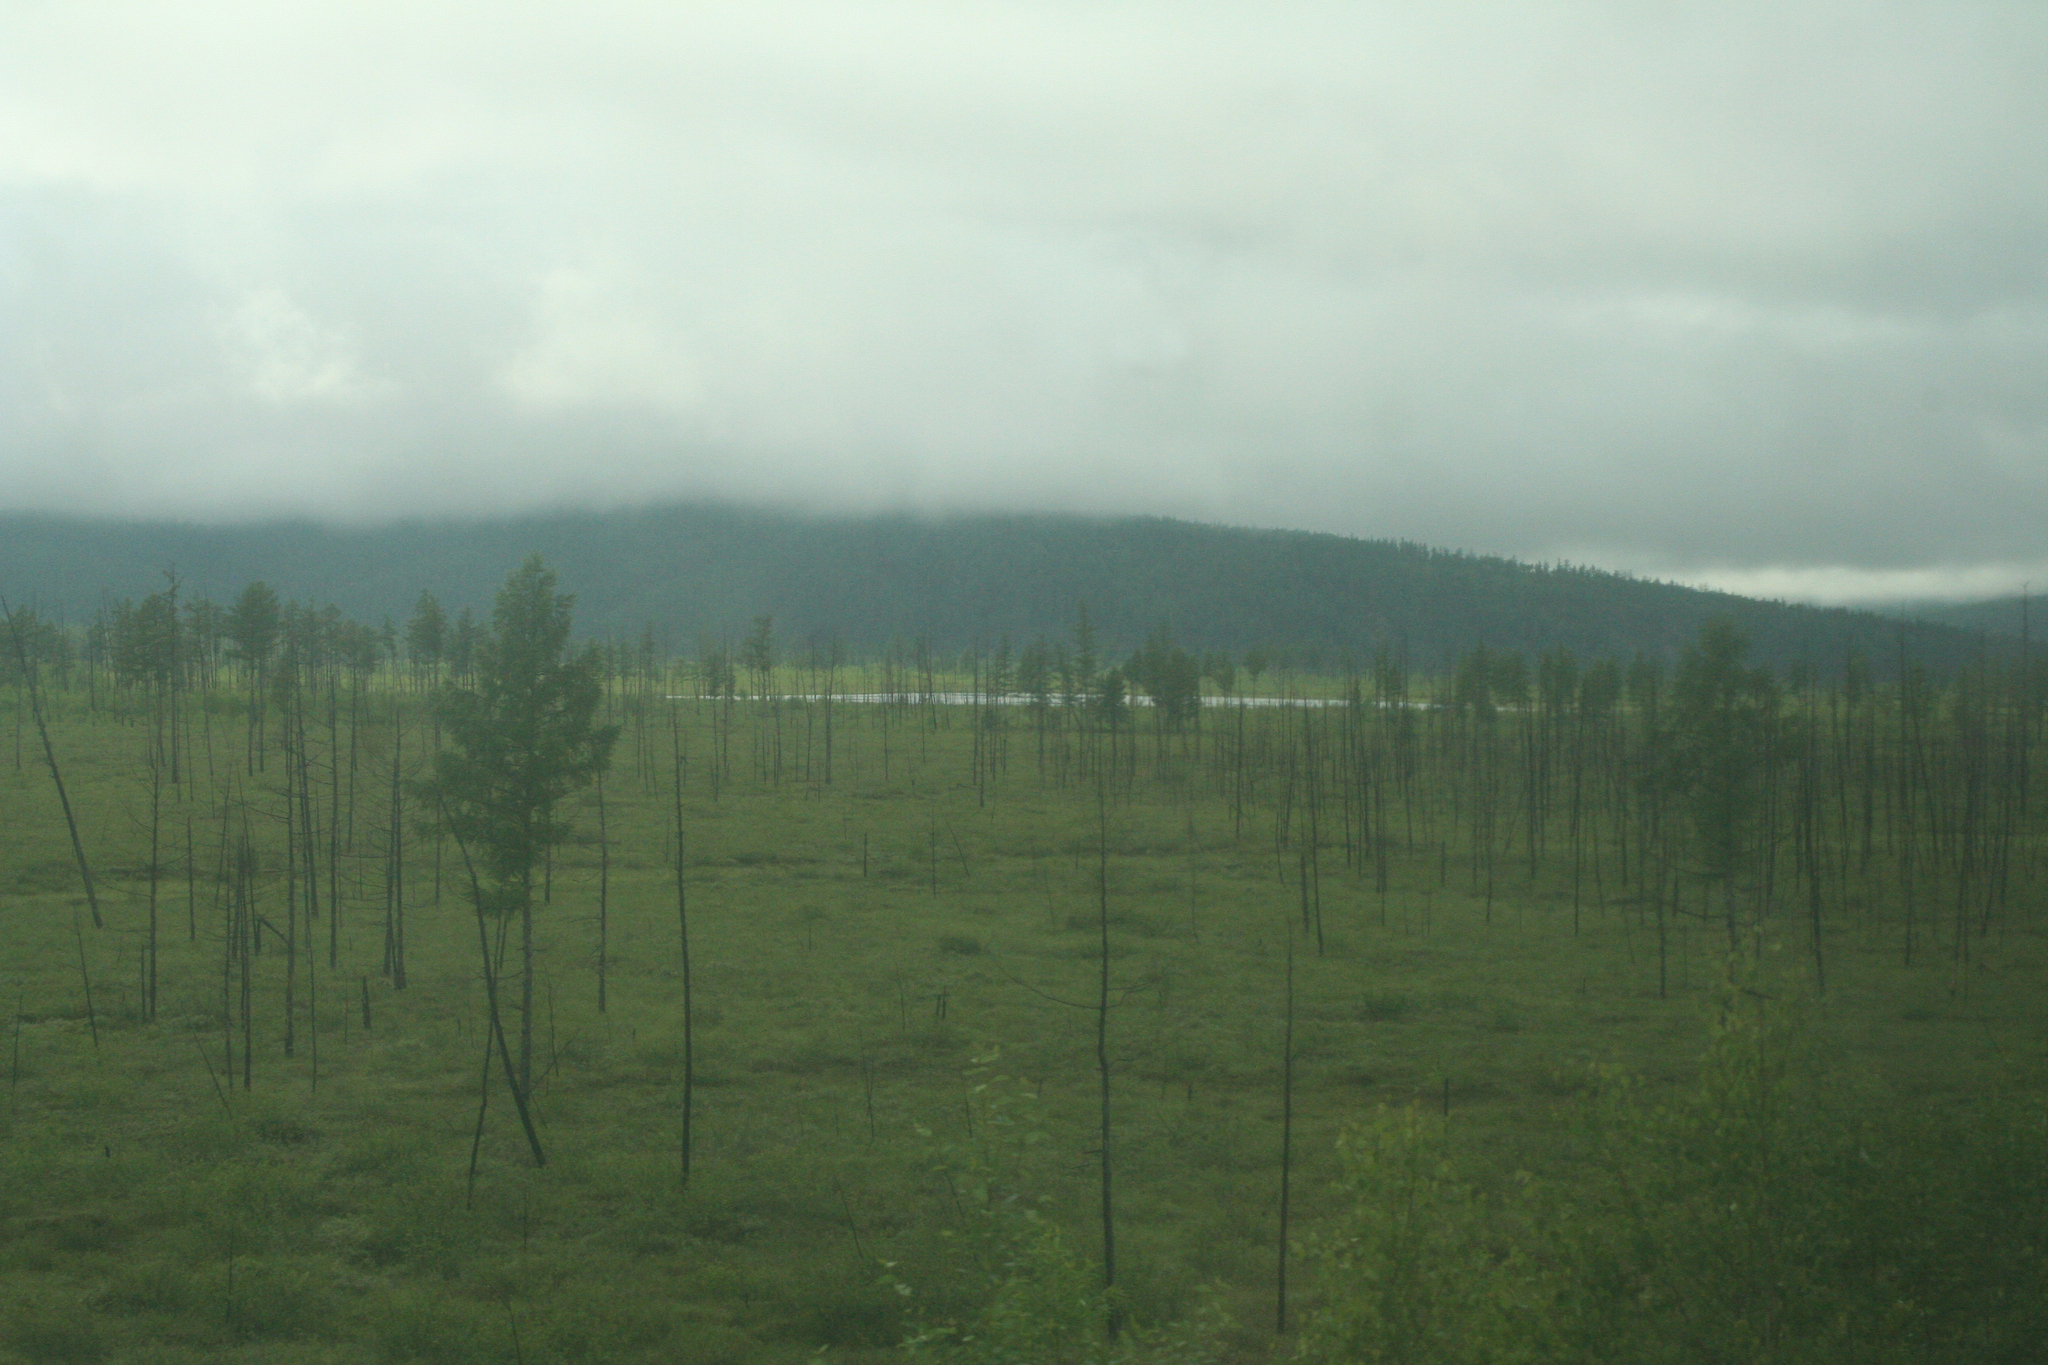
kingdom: Plantae
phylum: Tracheophyta
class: Pinopsida
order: Pinales
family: Pinaceae
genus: Larix
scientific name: Larix gmelinii
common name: Dahurian larch
